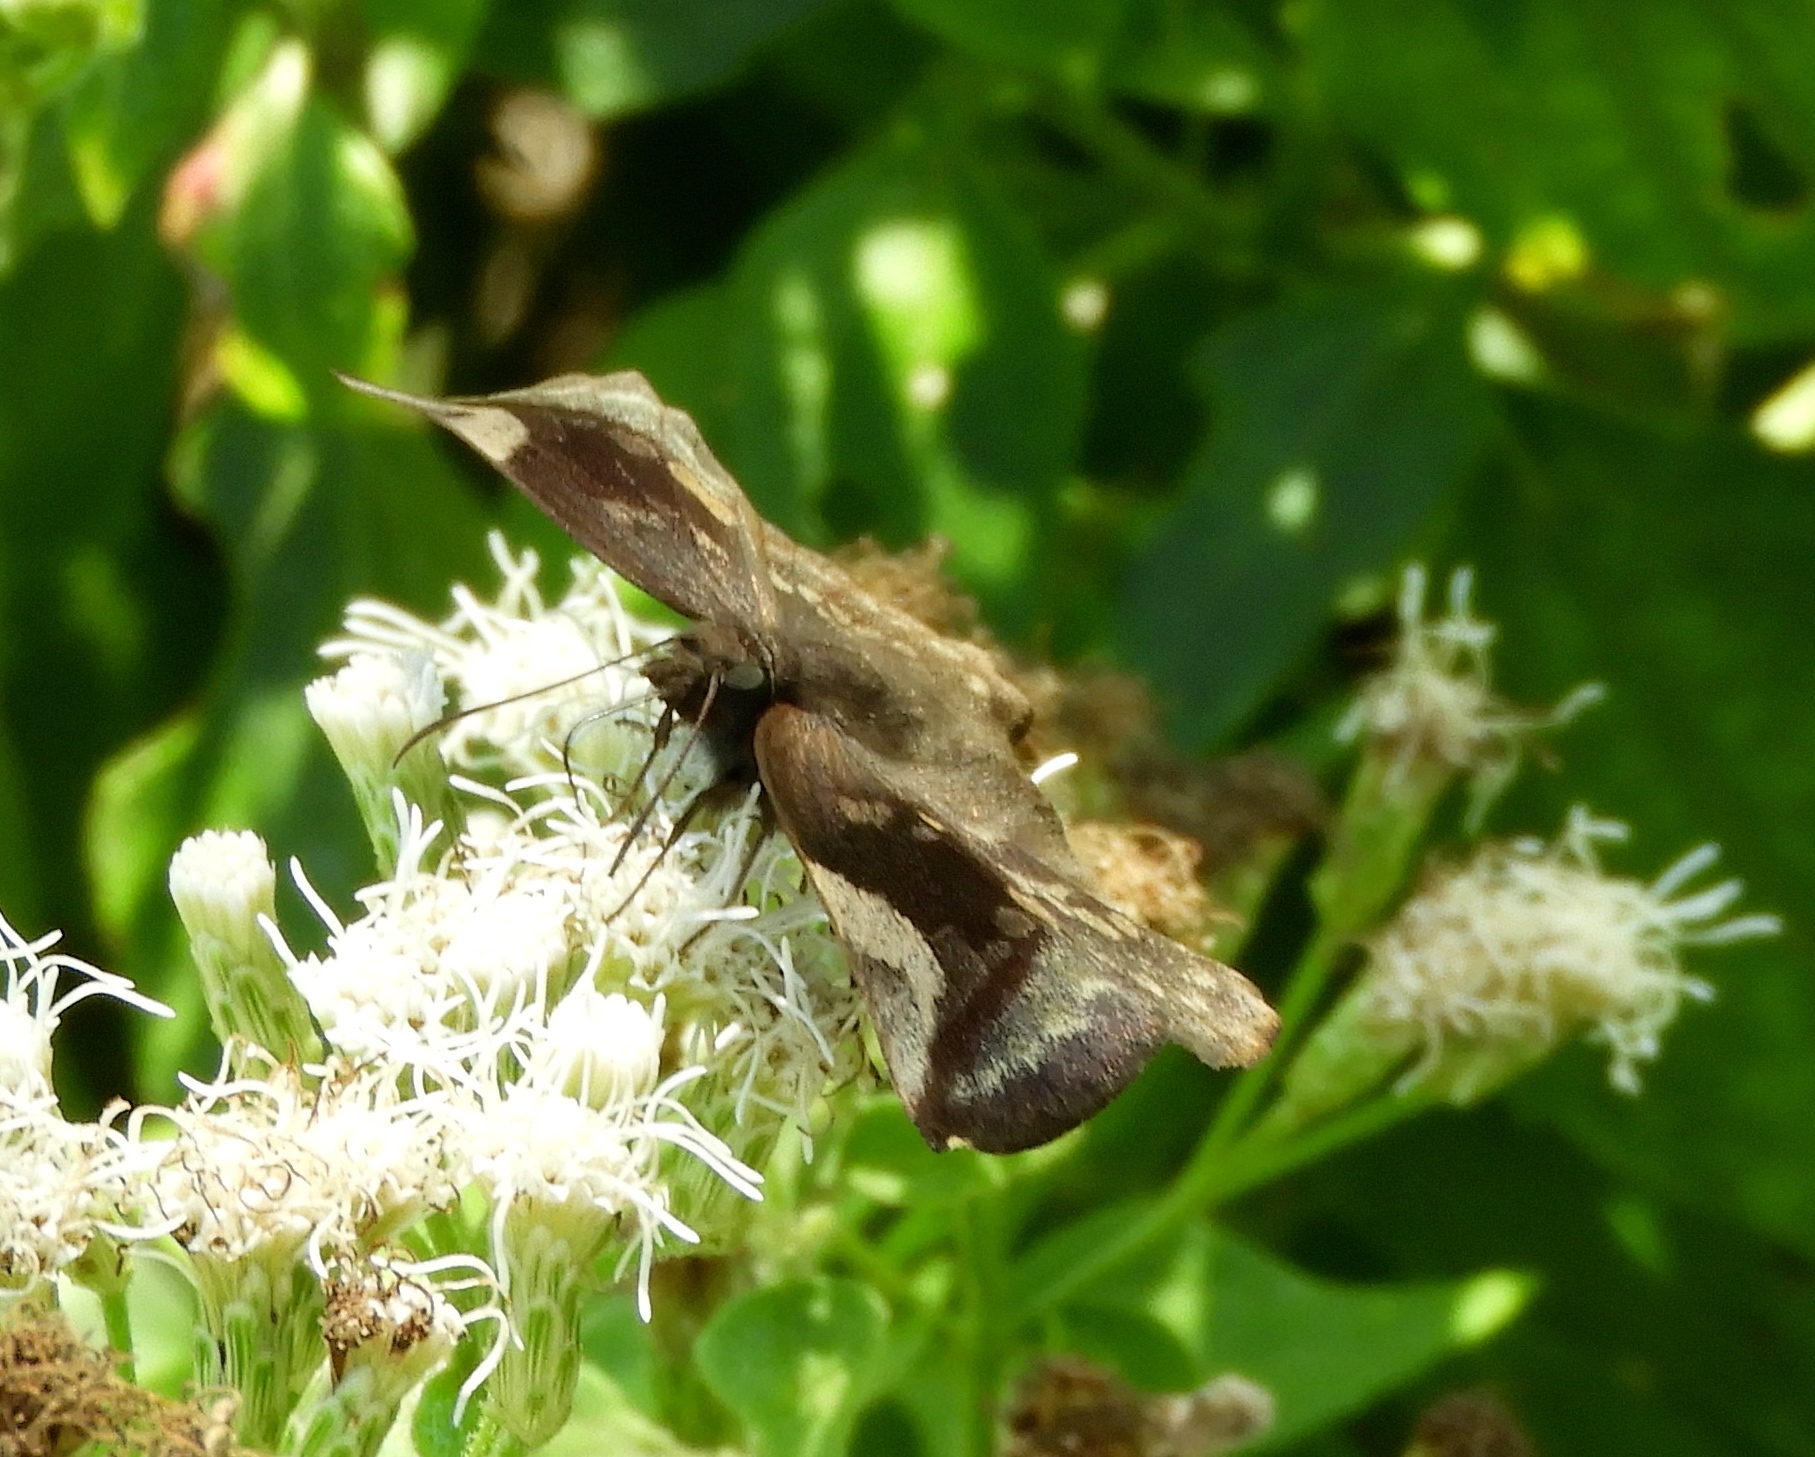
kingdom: Animalia
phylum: Arthropoda
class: Insecta
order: Lepidoptera
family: Hesperiidae
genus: Achlyodes
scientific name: Achlyodes thraso
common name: Sickle-winged skipper
